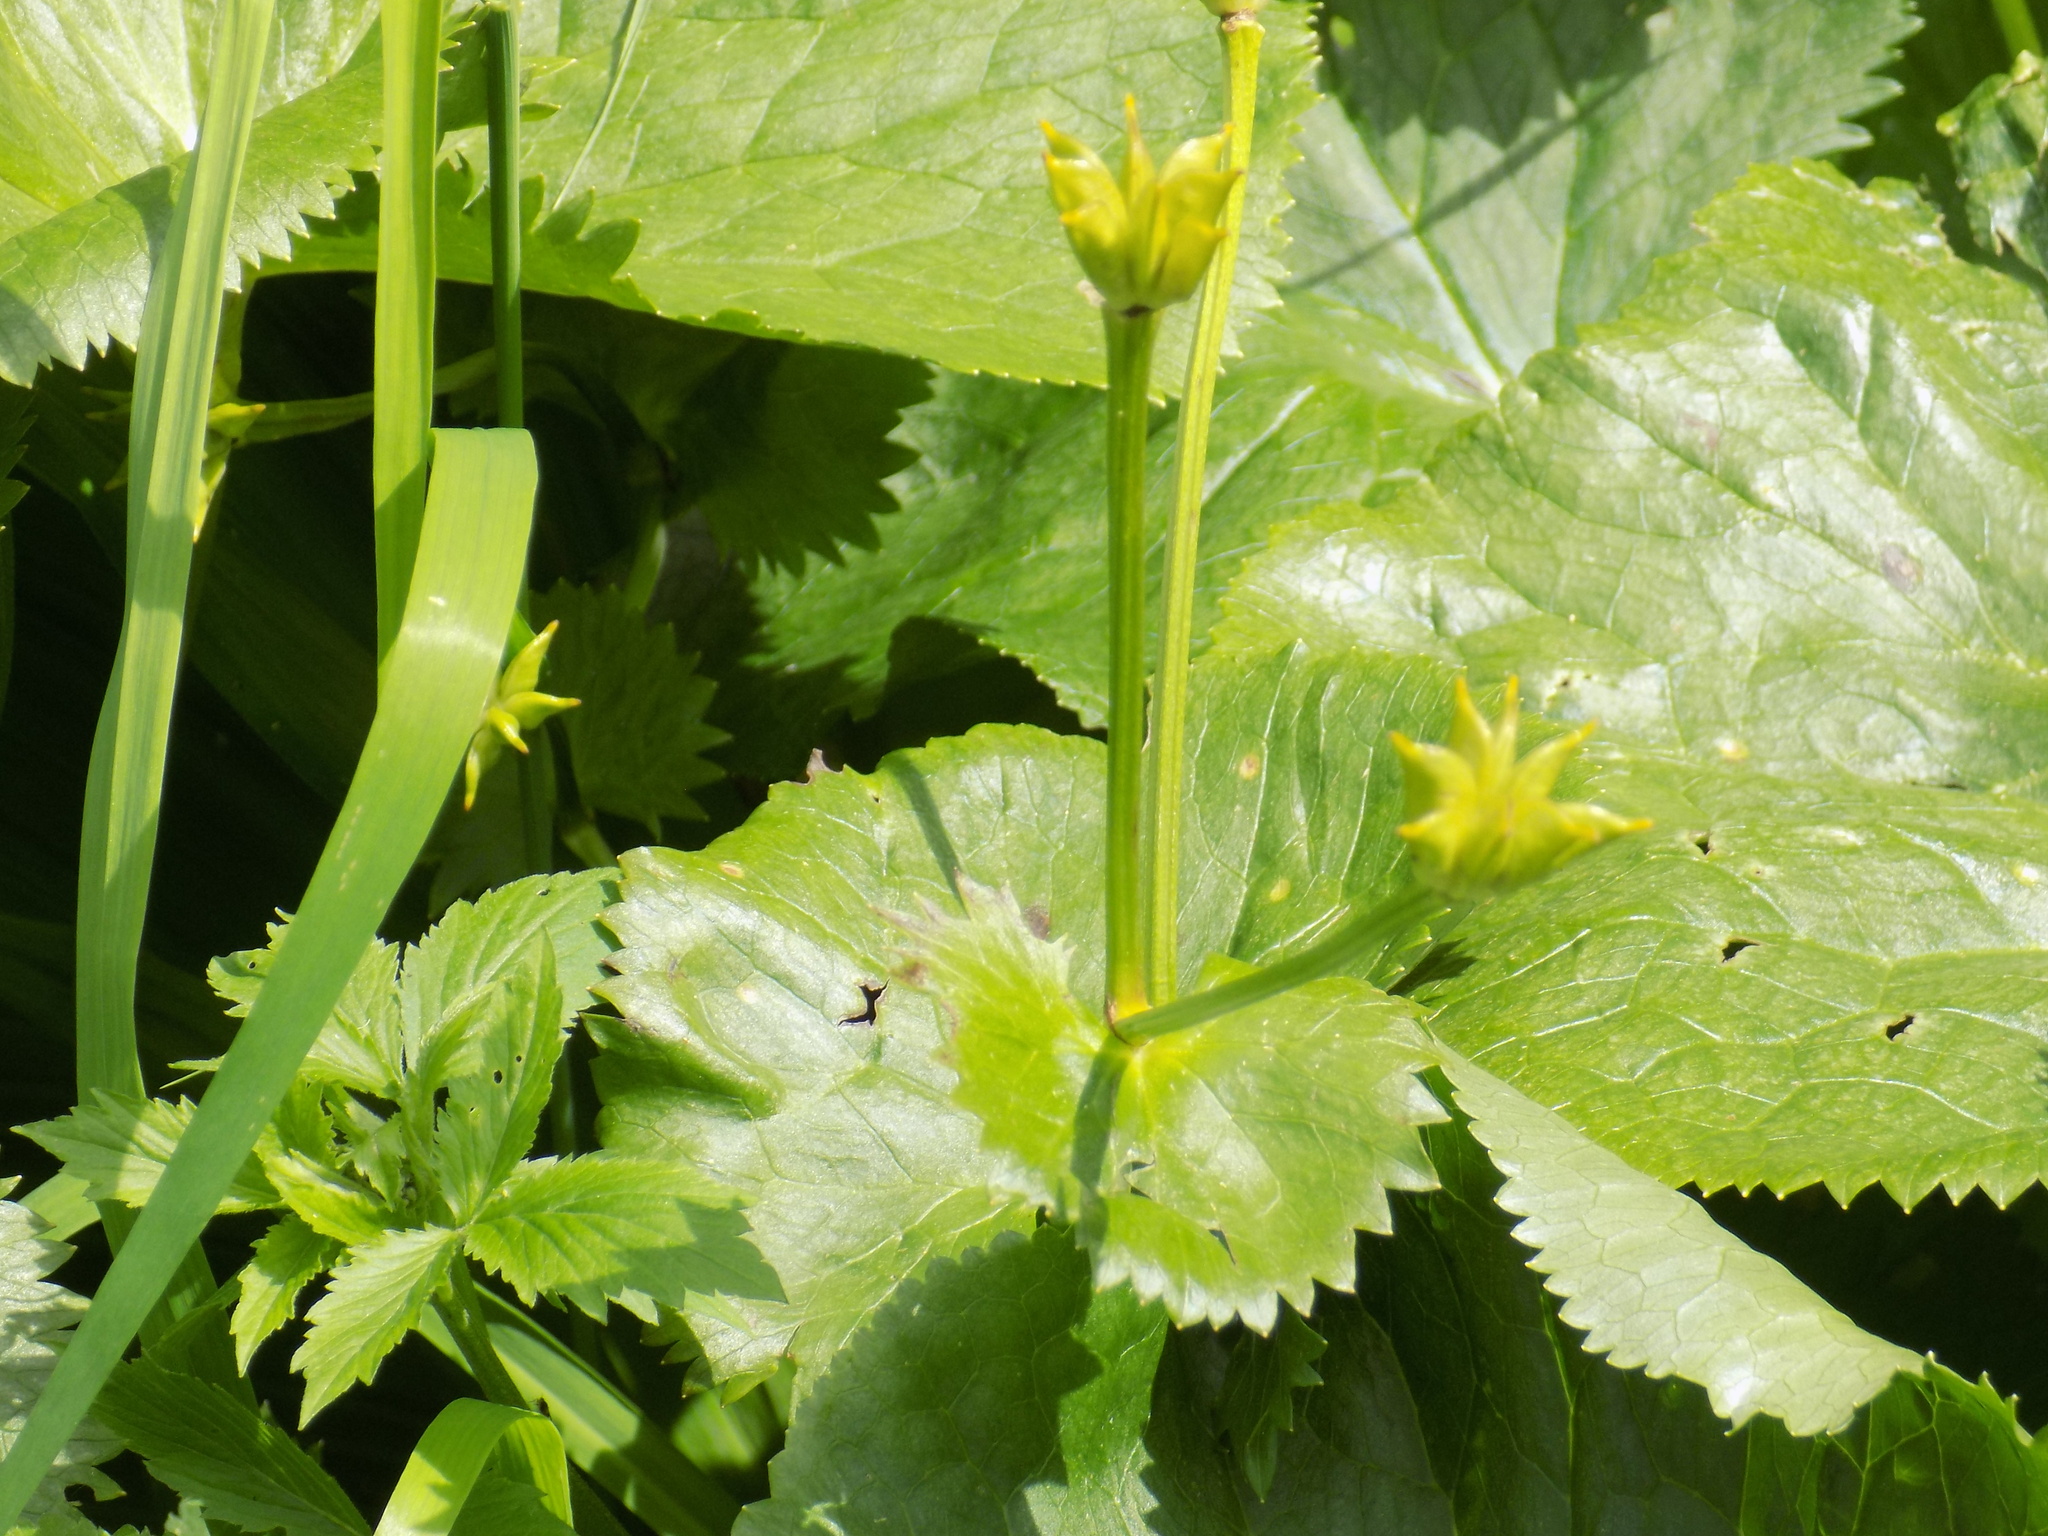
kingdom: Plantae
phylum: Tracheophyta
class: Magnoliopsida
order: Ranunculales
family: Ranunculaceae
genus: Caltha
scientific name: Caltha palustris
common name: Marsh marigold
